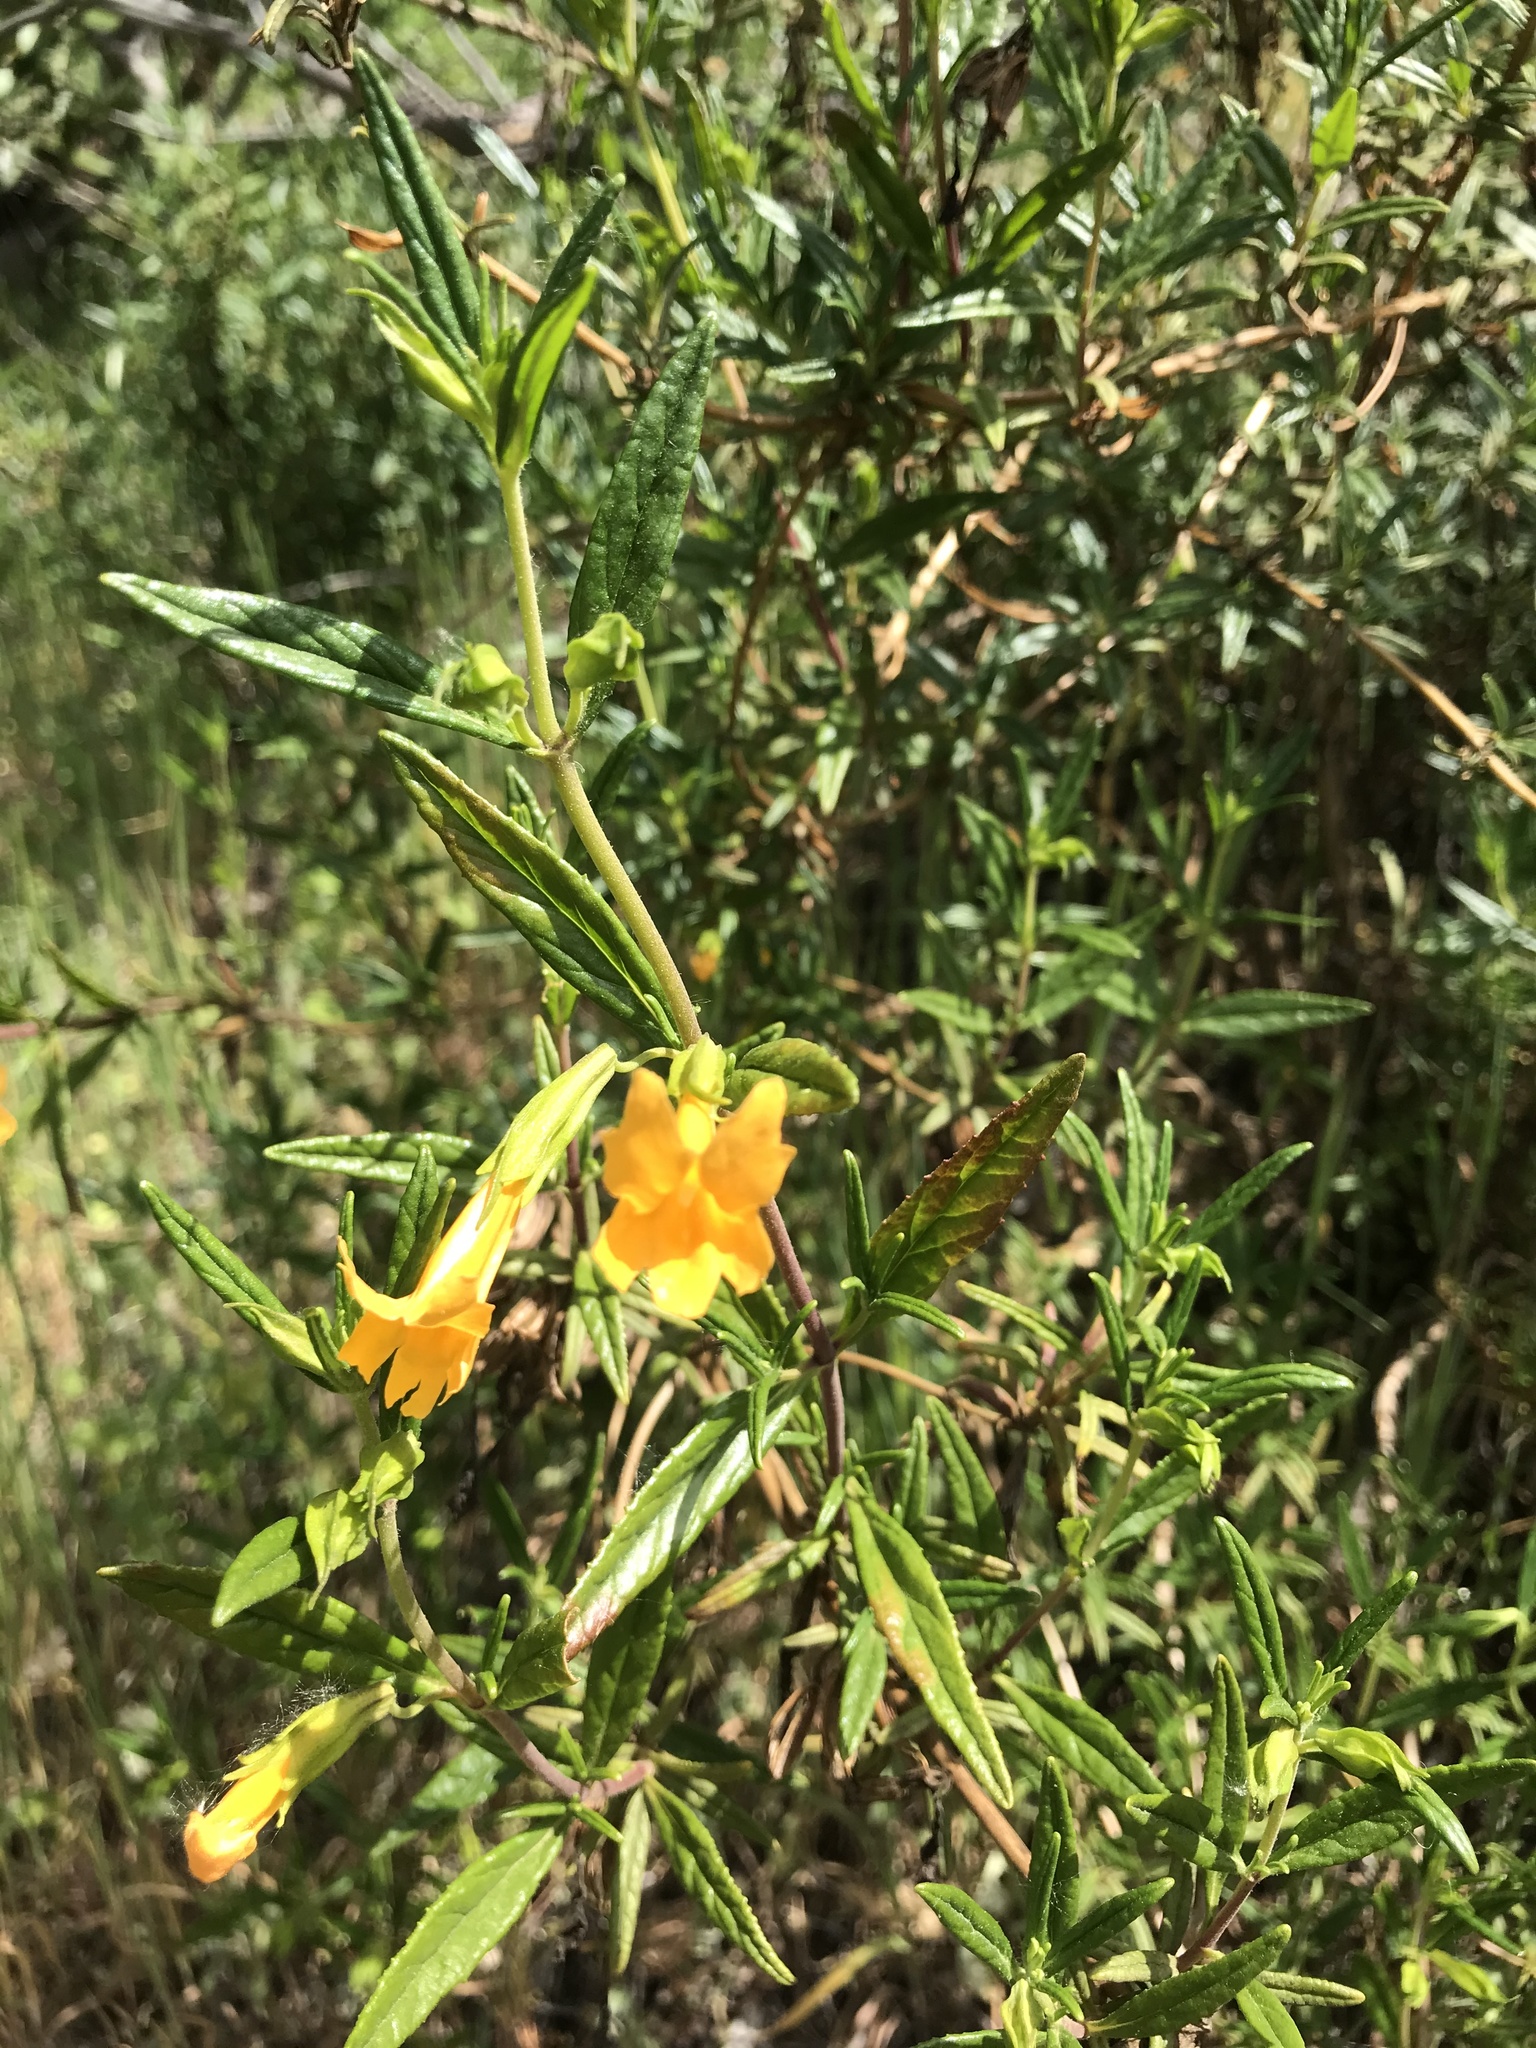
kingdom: Plantae
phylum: Tracheophyta
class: Magnoliopsida
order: Lamiales
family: Phrymaceae
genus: Diplacus
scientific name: Diplacus aurantiacus
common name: Bush monkey-flower
